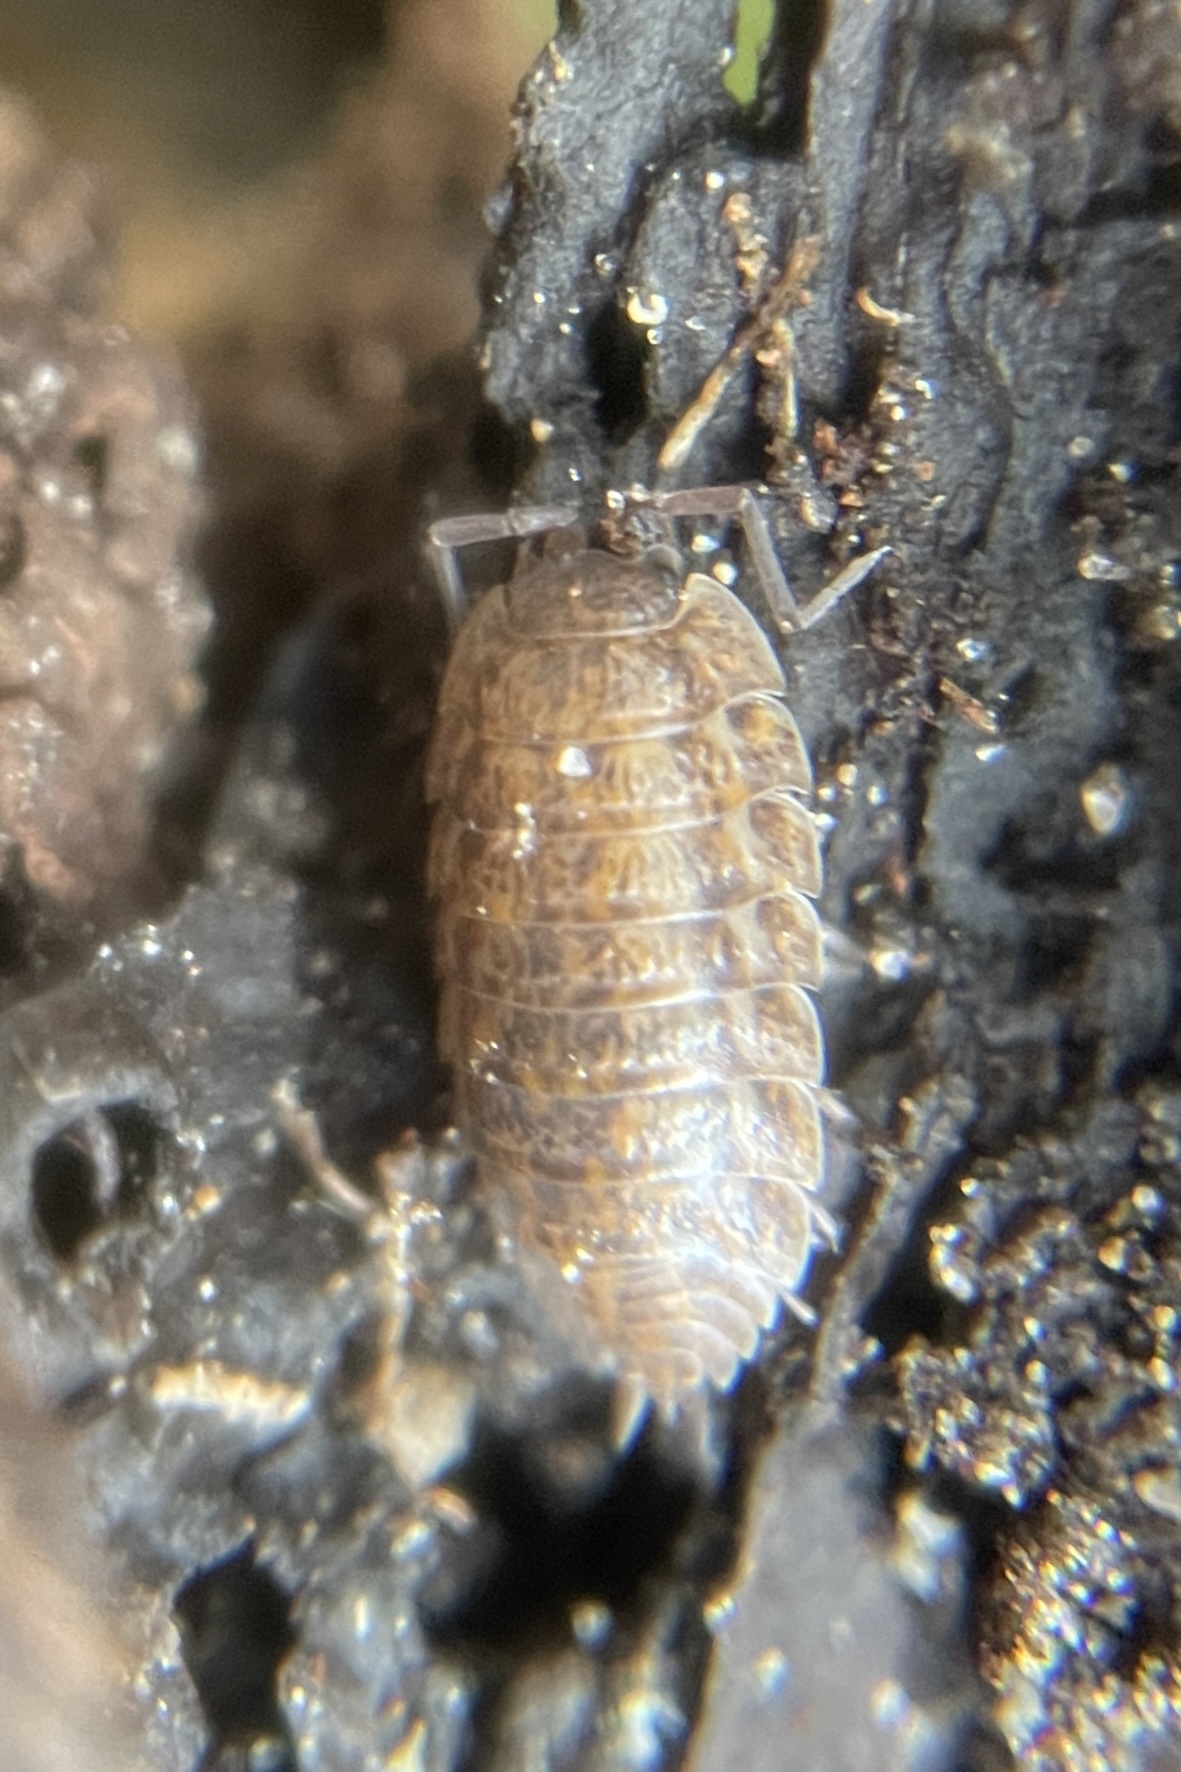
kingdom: Animalia
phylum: Arthropoda
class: Malacostraca
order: Isopoda
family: Trachelipodidae
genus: Trachelipus
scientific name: Trachelipus rathkii
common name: Isopod
